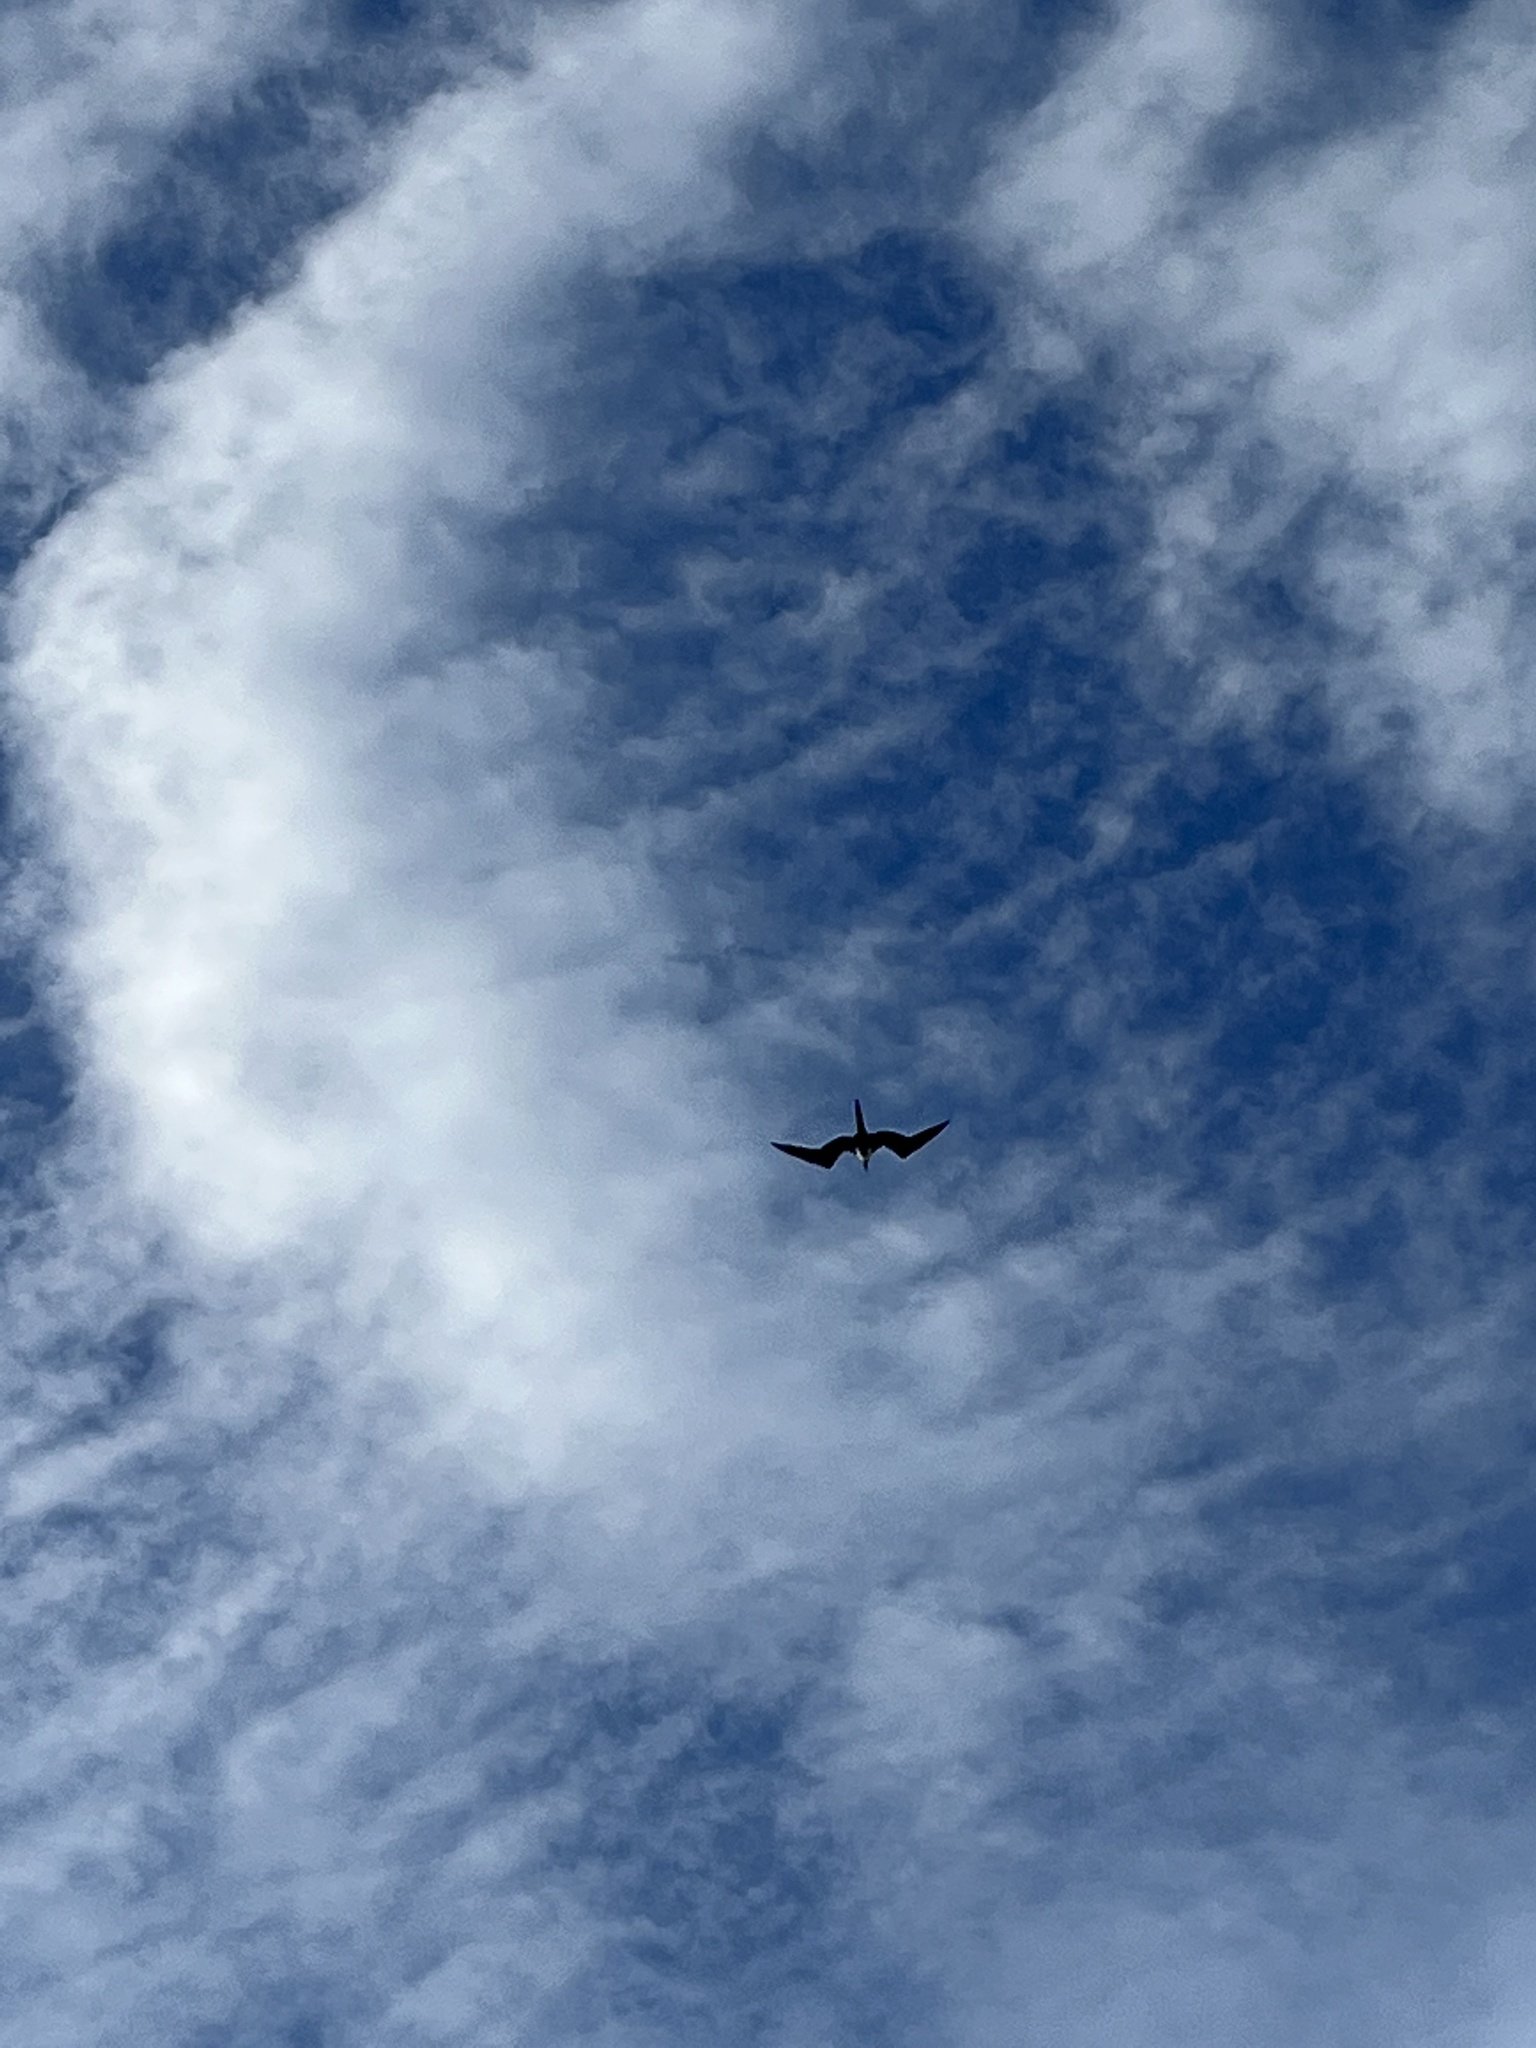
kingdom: Animalia
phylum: Chordata
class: Aves
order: Suliformes
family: Fregatidae
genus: Fregata
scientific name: Fregata magnificens
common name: Magnificent frigatebird
